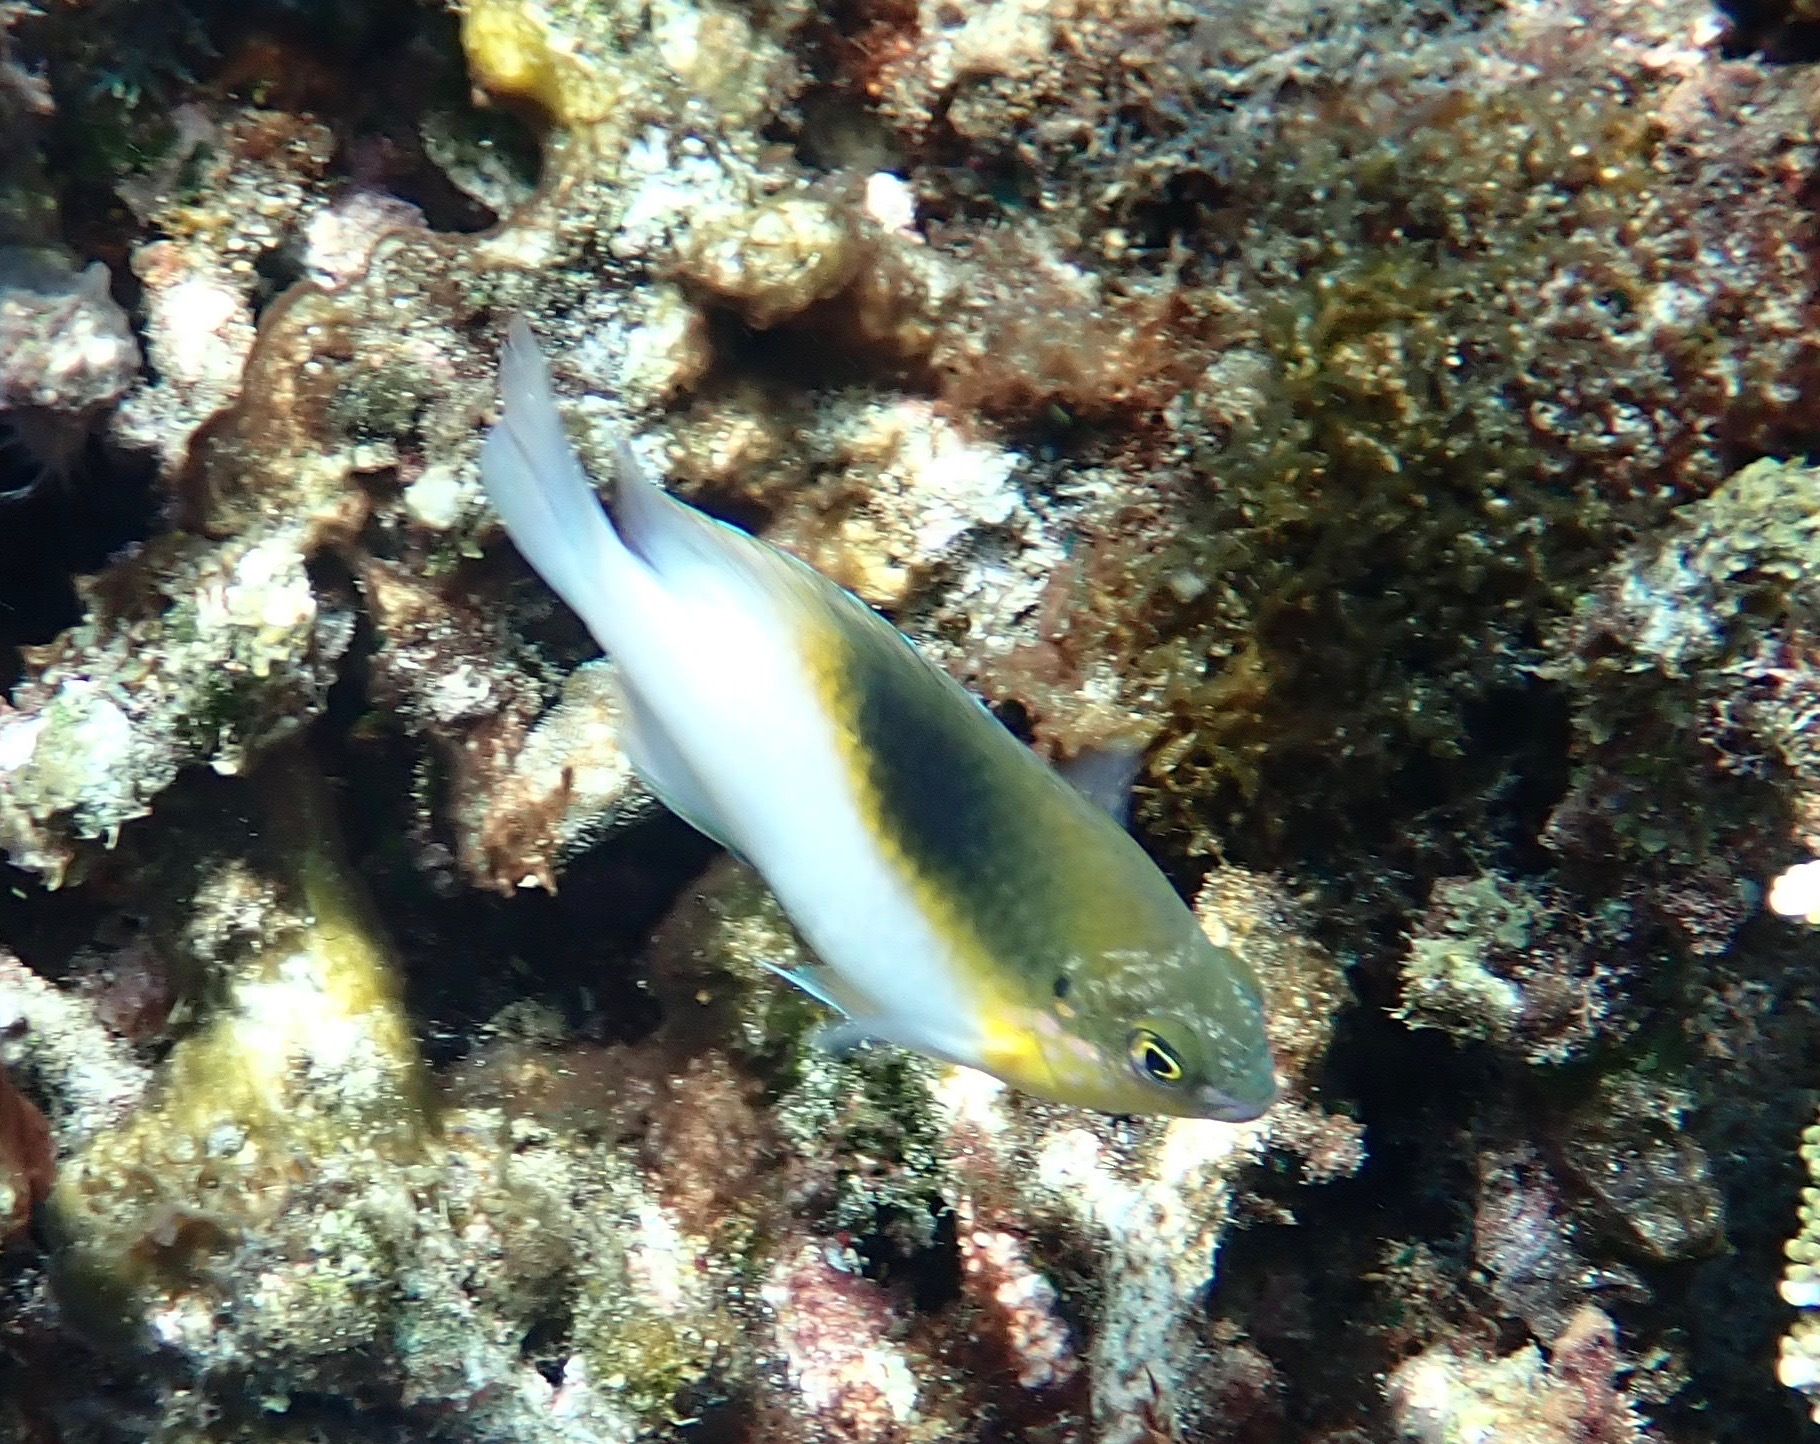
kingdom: Animalia
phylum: Chordata
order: Perciformes
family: Pomacentridae
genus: Dischistodus
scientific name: Dischistodus melanotus
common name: Black-vent damsel
